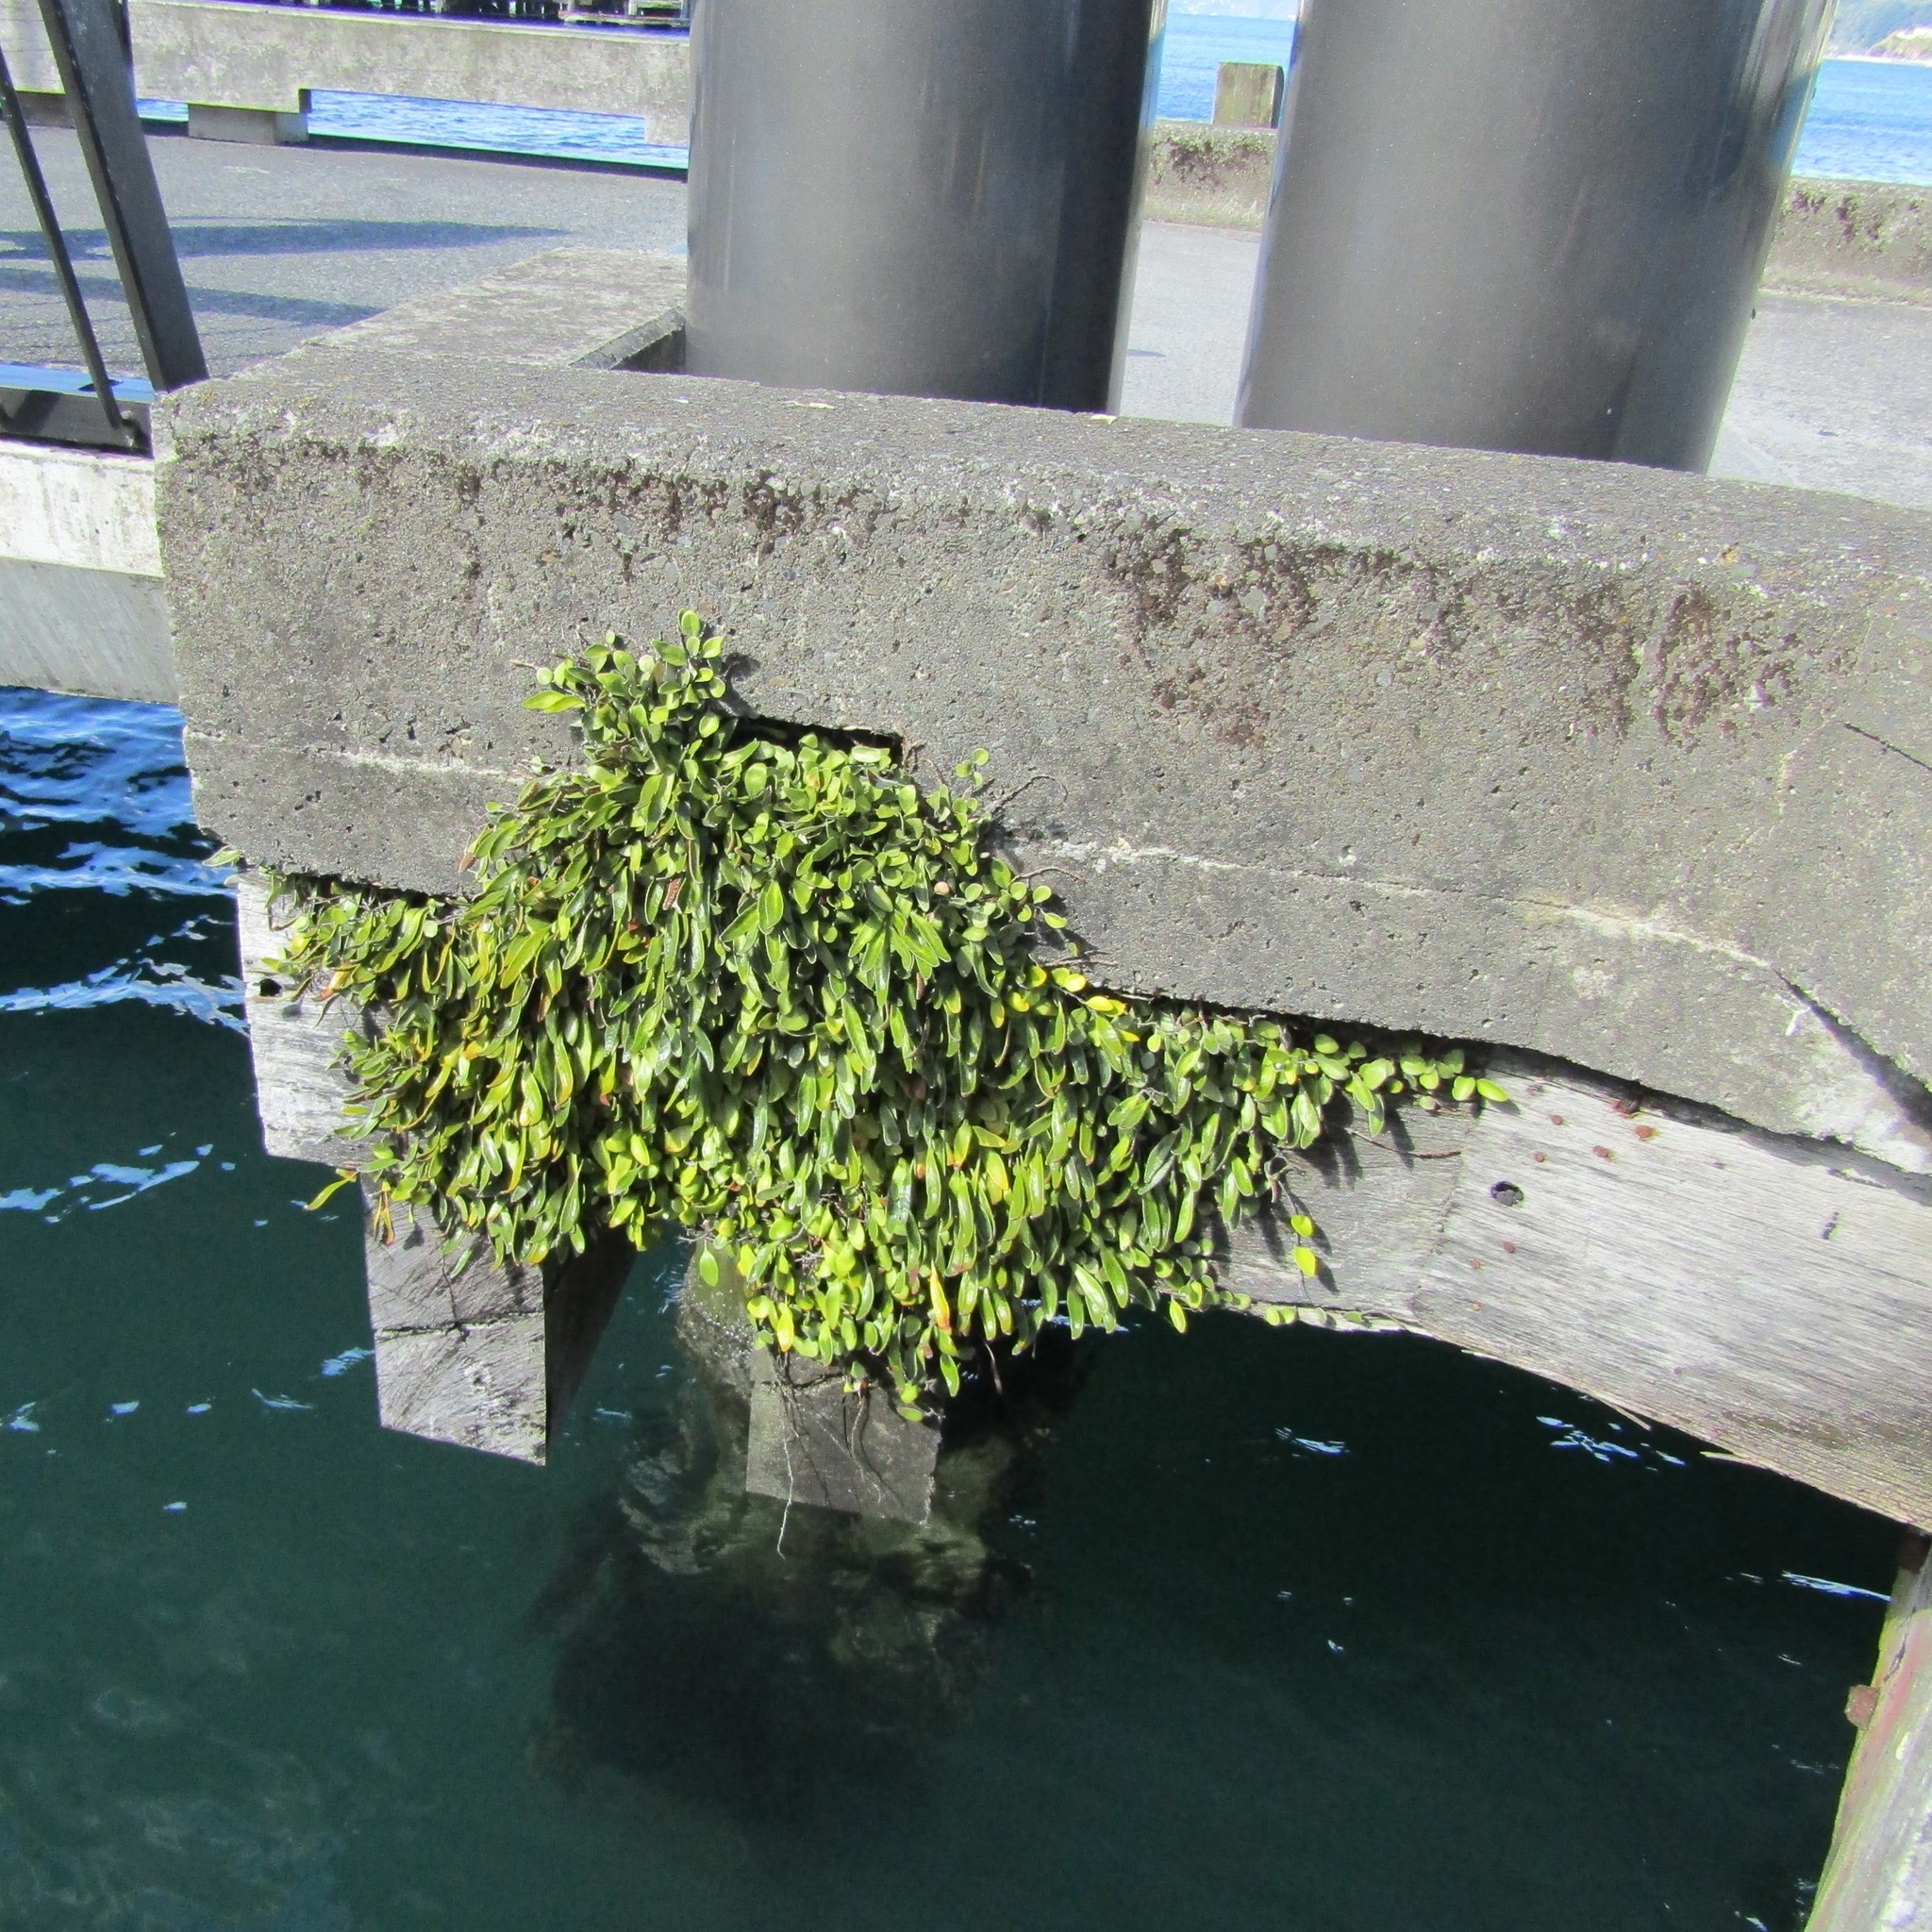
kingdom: Plantae
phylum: Tracheophyta
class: Polypodiopsida
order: Polypodiales
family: Polypodiaceae
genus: Pyrrosia
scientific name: Pyrrosia eleagnifolia
